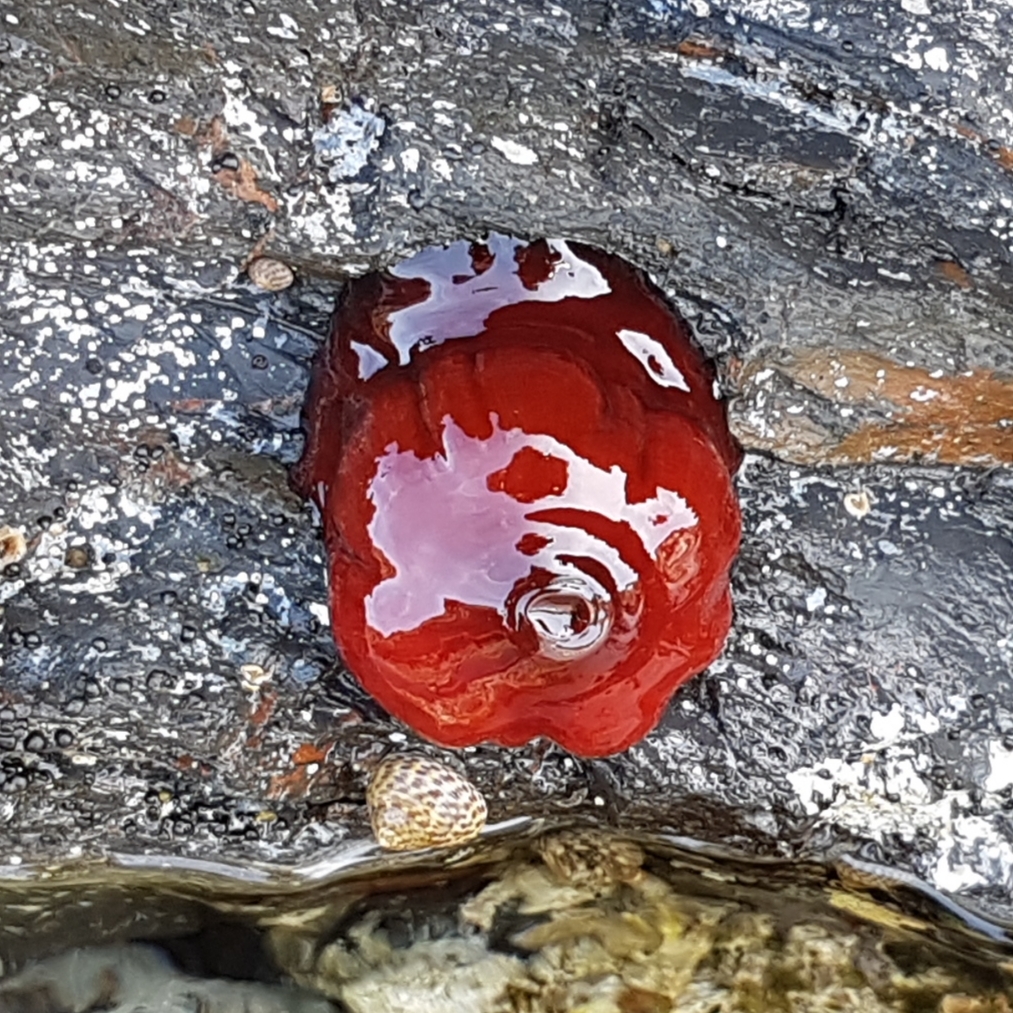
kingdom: Animalia
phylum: Cnidaria
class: Anthozoa
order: Actiniaria
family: Actiniidae
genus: Actinia
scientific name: Actinia mediterranea
